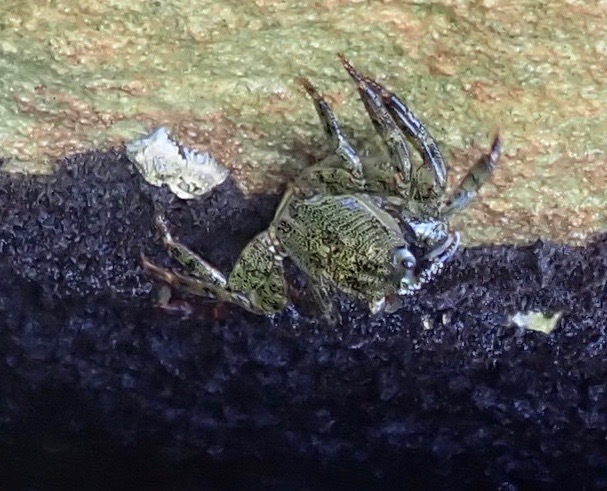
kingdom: Animalia
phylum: Arthropoda
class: Malacostraca
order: Decapoda
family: Grapsidae
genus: Leptograpsus
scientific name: Leptograpsus variegatus
